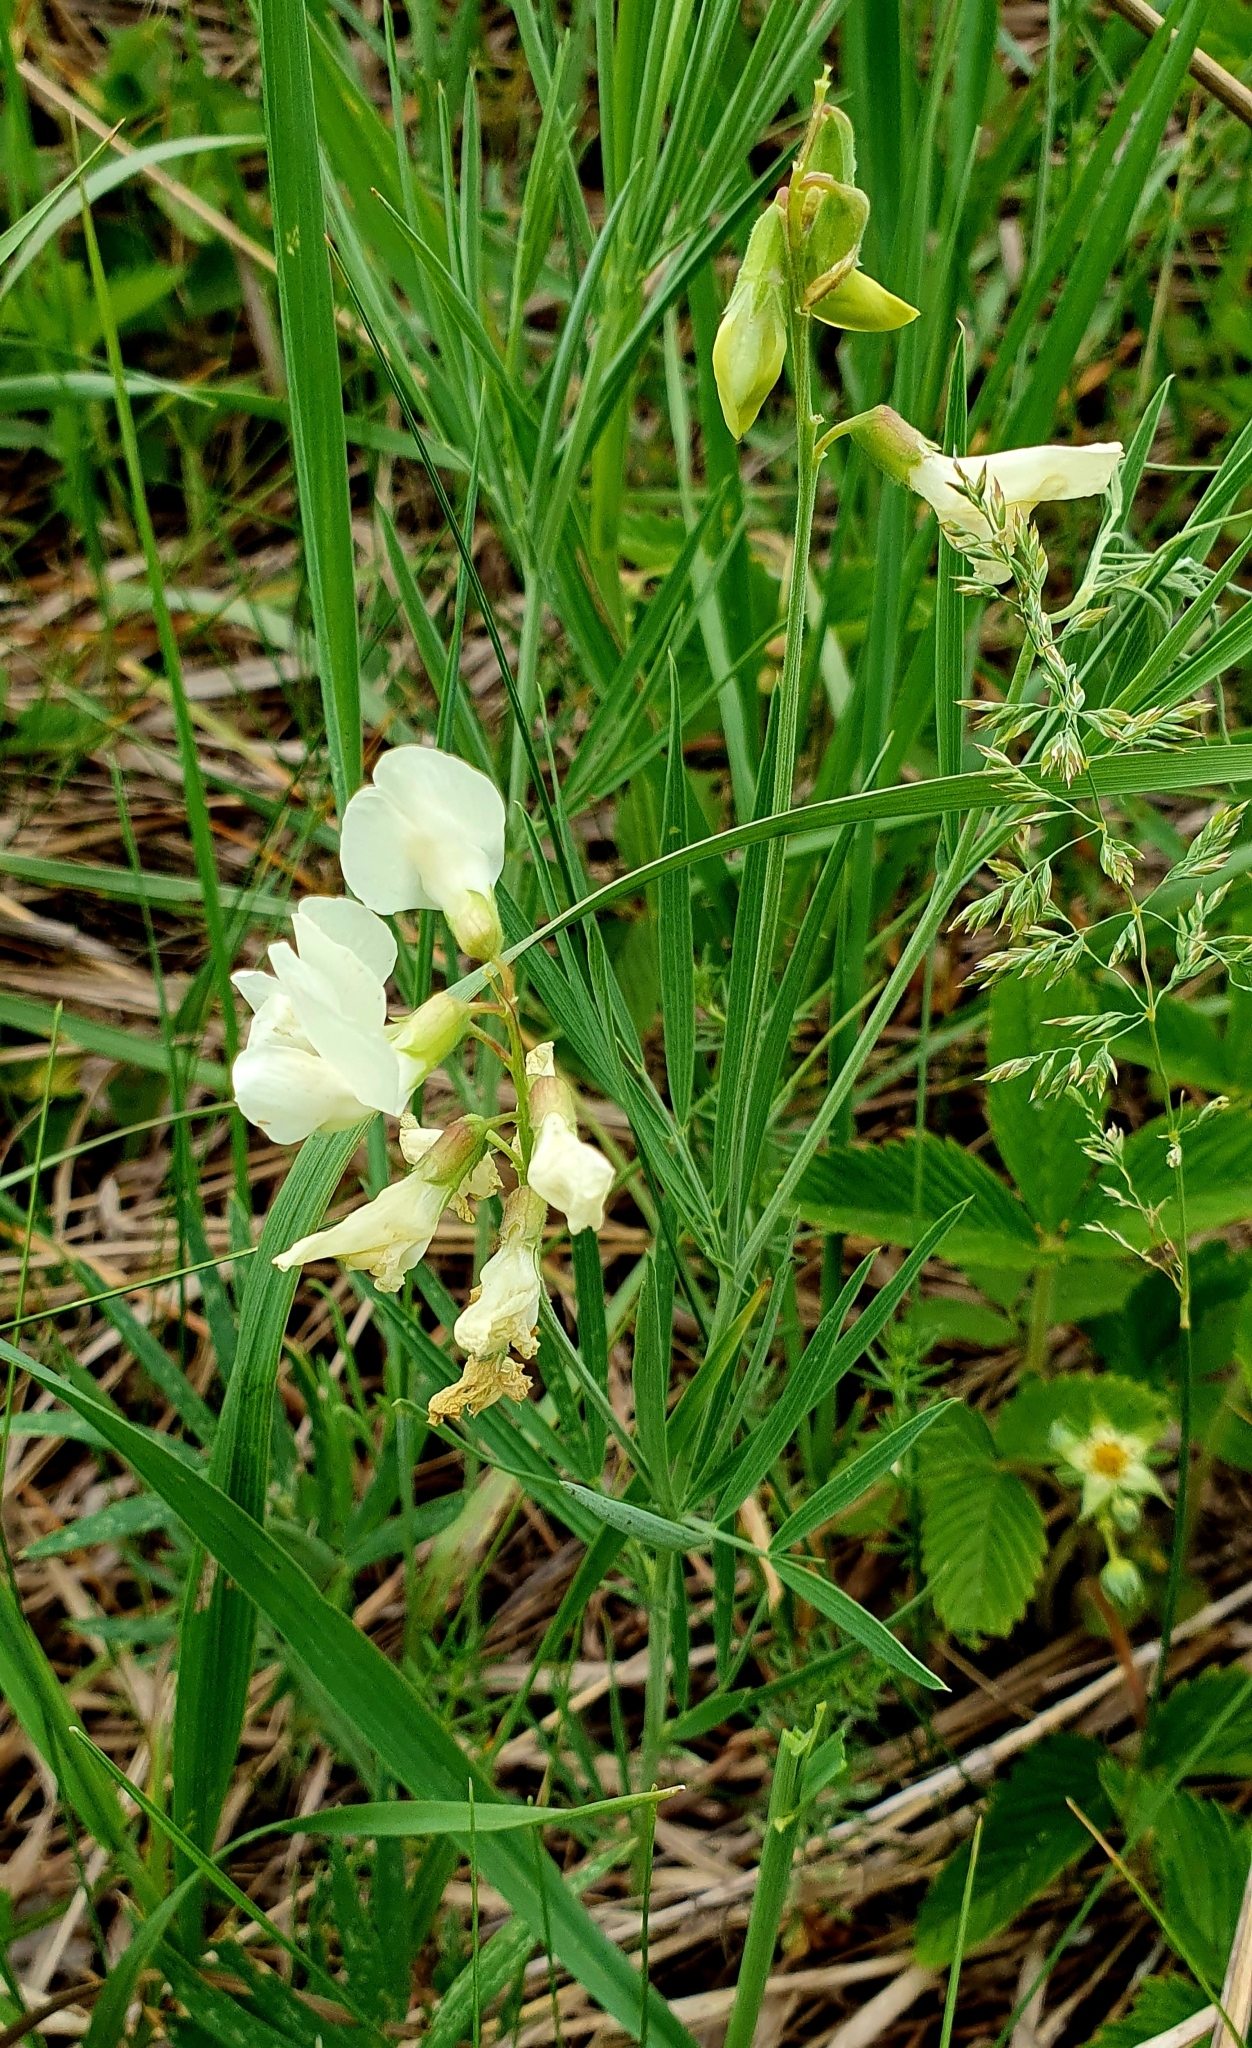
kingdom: Plantae
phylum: Tracheophyta
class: Magnoliopsida
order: Fabales
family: Fabaceae
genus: Lathyrus
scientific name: Lathyrus pallescens
